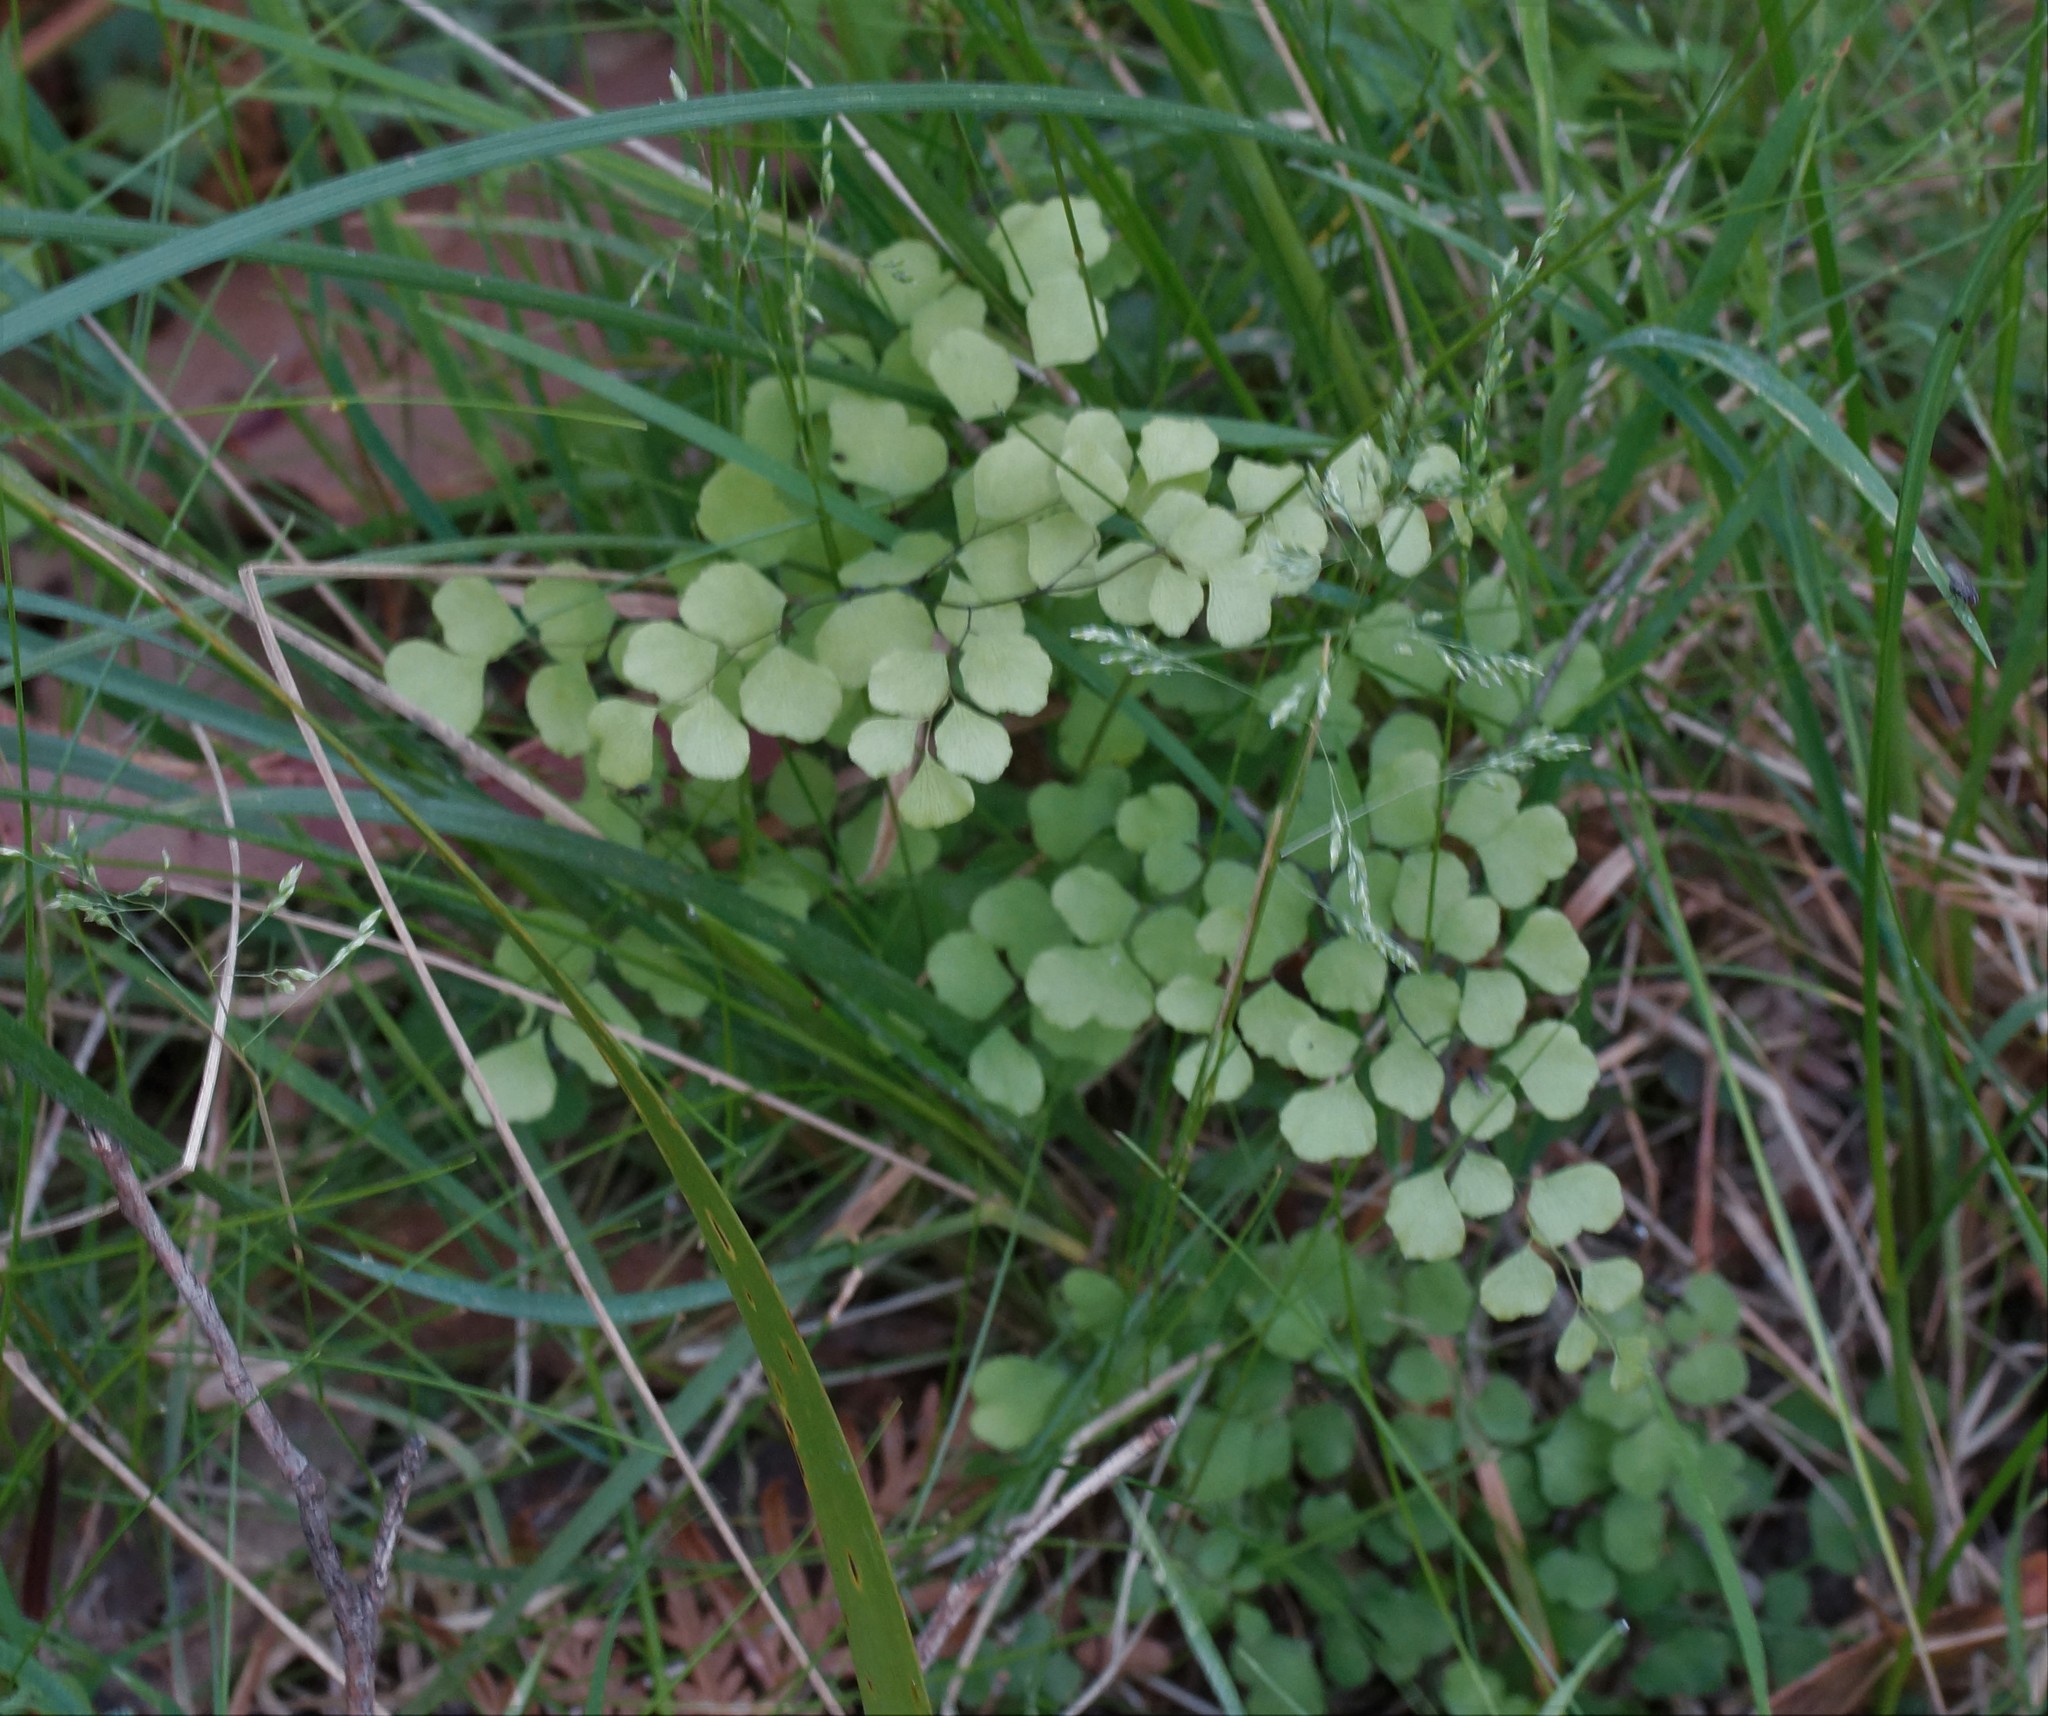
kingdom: Plantae
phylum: Tracheophyta
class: Polypodiopsida
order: Polypodiales
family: Pteridaceae
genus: Adiantum
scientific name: Adiantum aethiopicum
